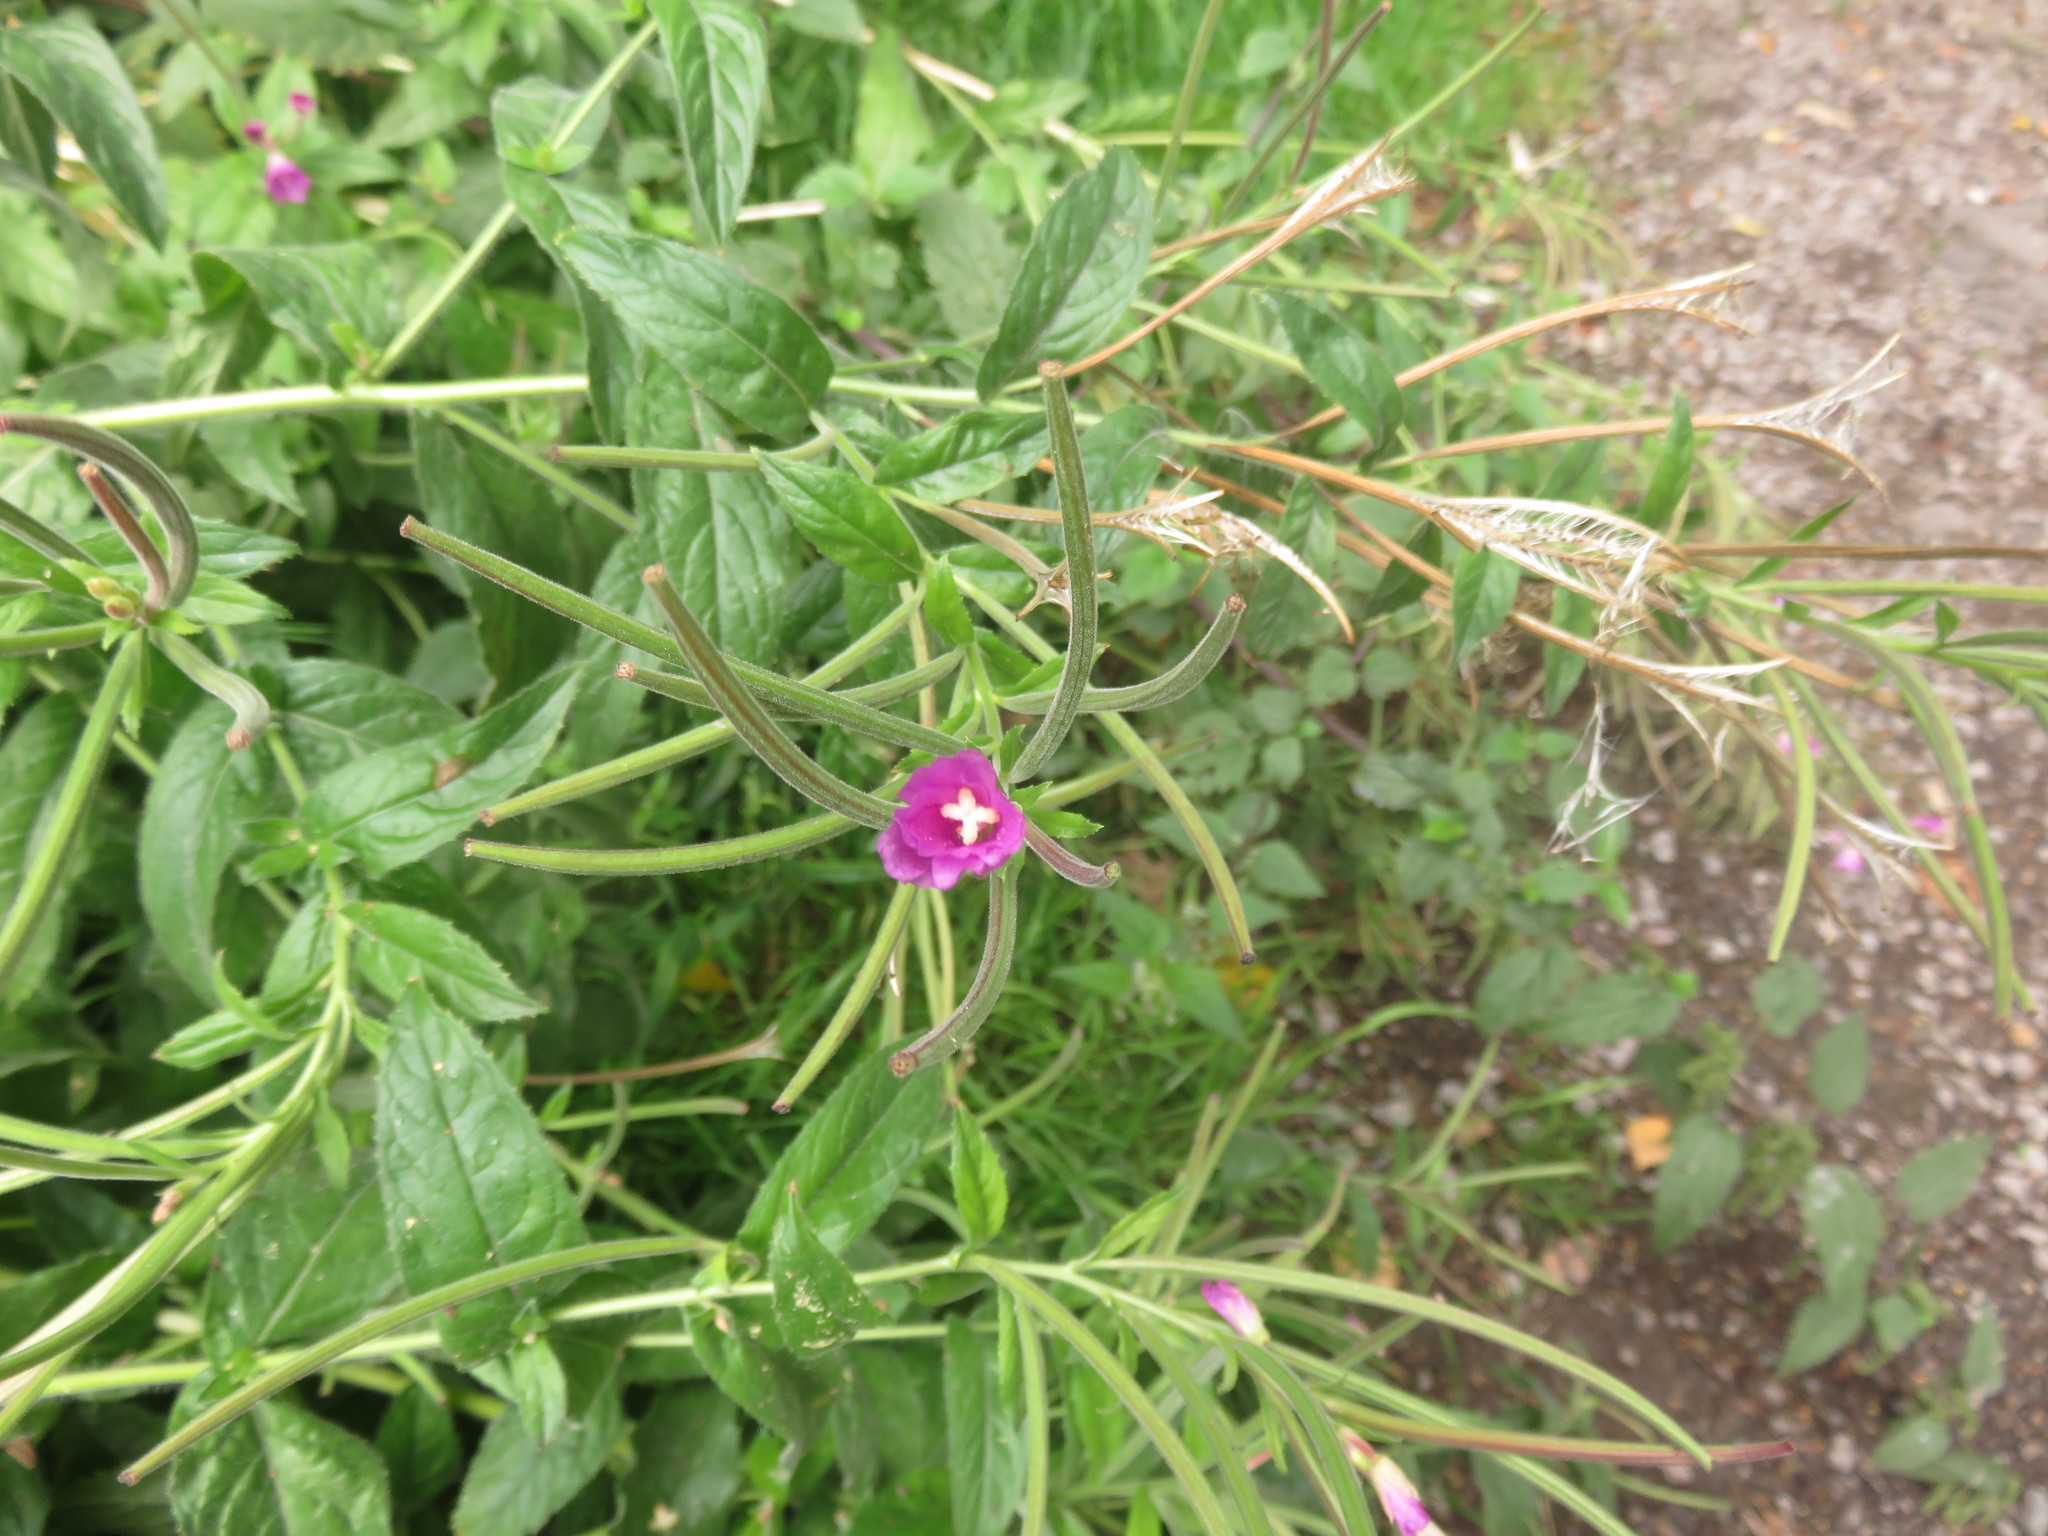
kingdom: Plantae
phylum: Tracheophyta
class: Magnoliopsida
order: Myrtales
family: Onagraceae
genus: Epilobium
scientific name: Epilobium hirsutum
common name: Great willowherb
